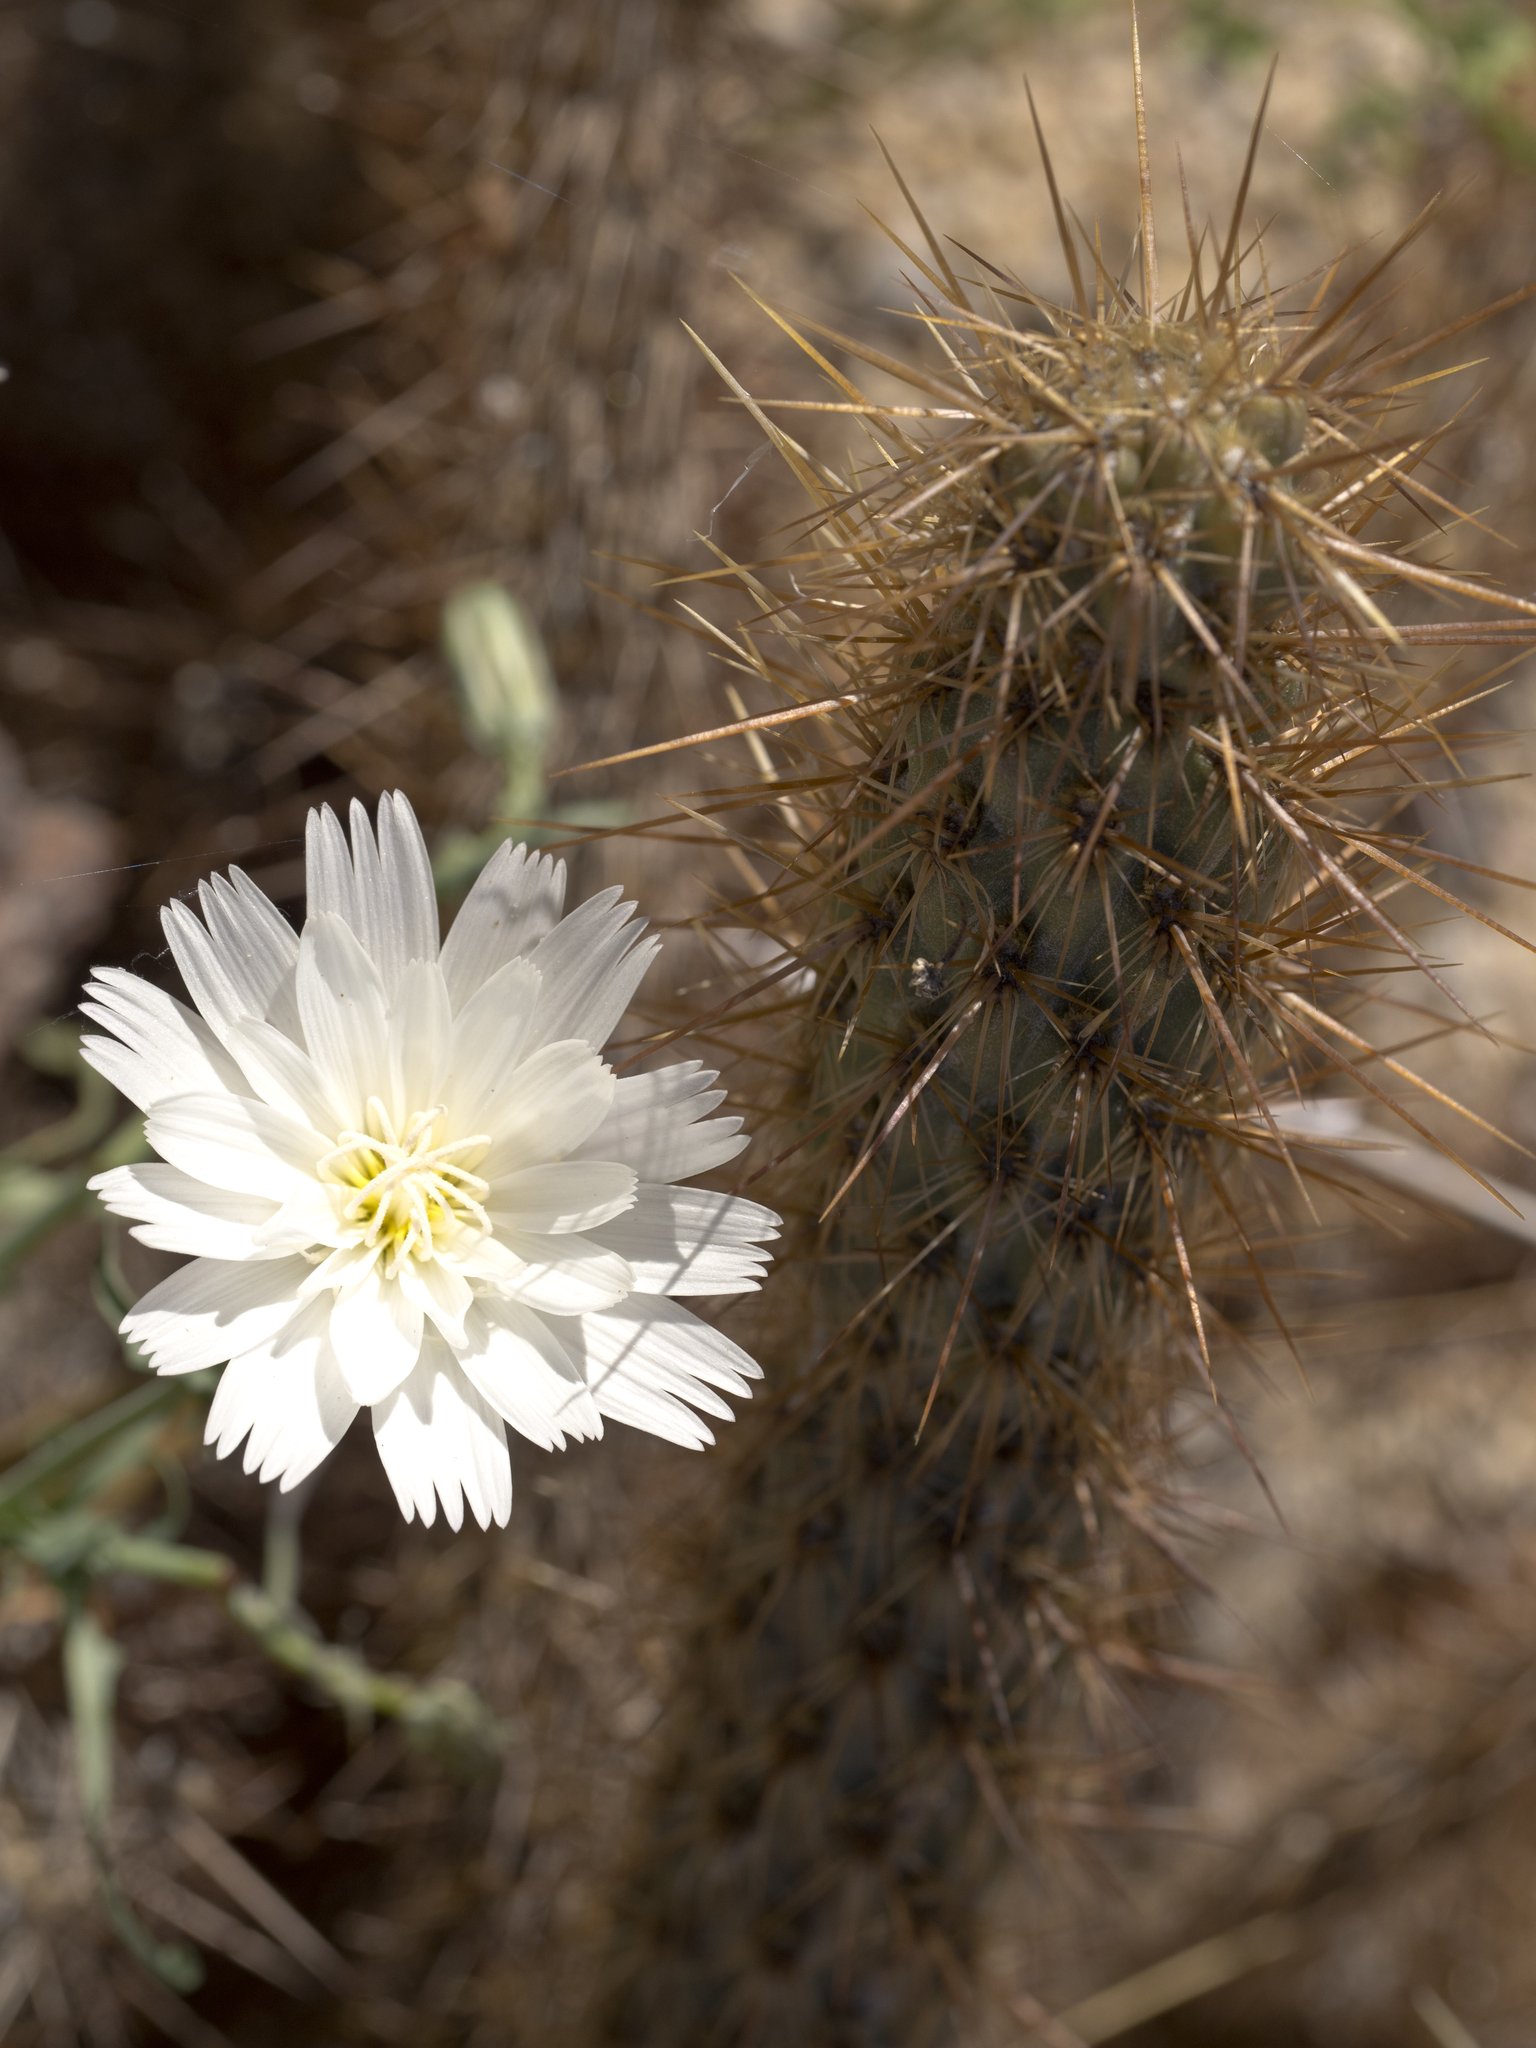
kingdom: Plantae
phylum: Tracheophyta
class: Magnoliopsida
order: Asterales
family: Asteraceae
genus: Rafinesquia
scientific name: Rafinesquia neomexicana
